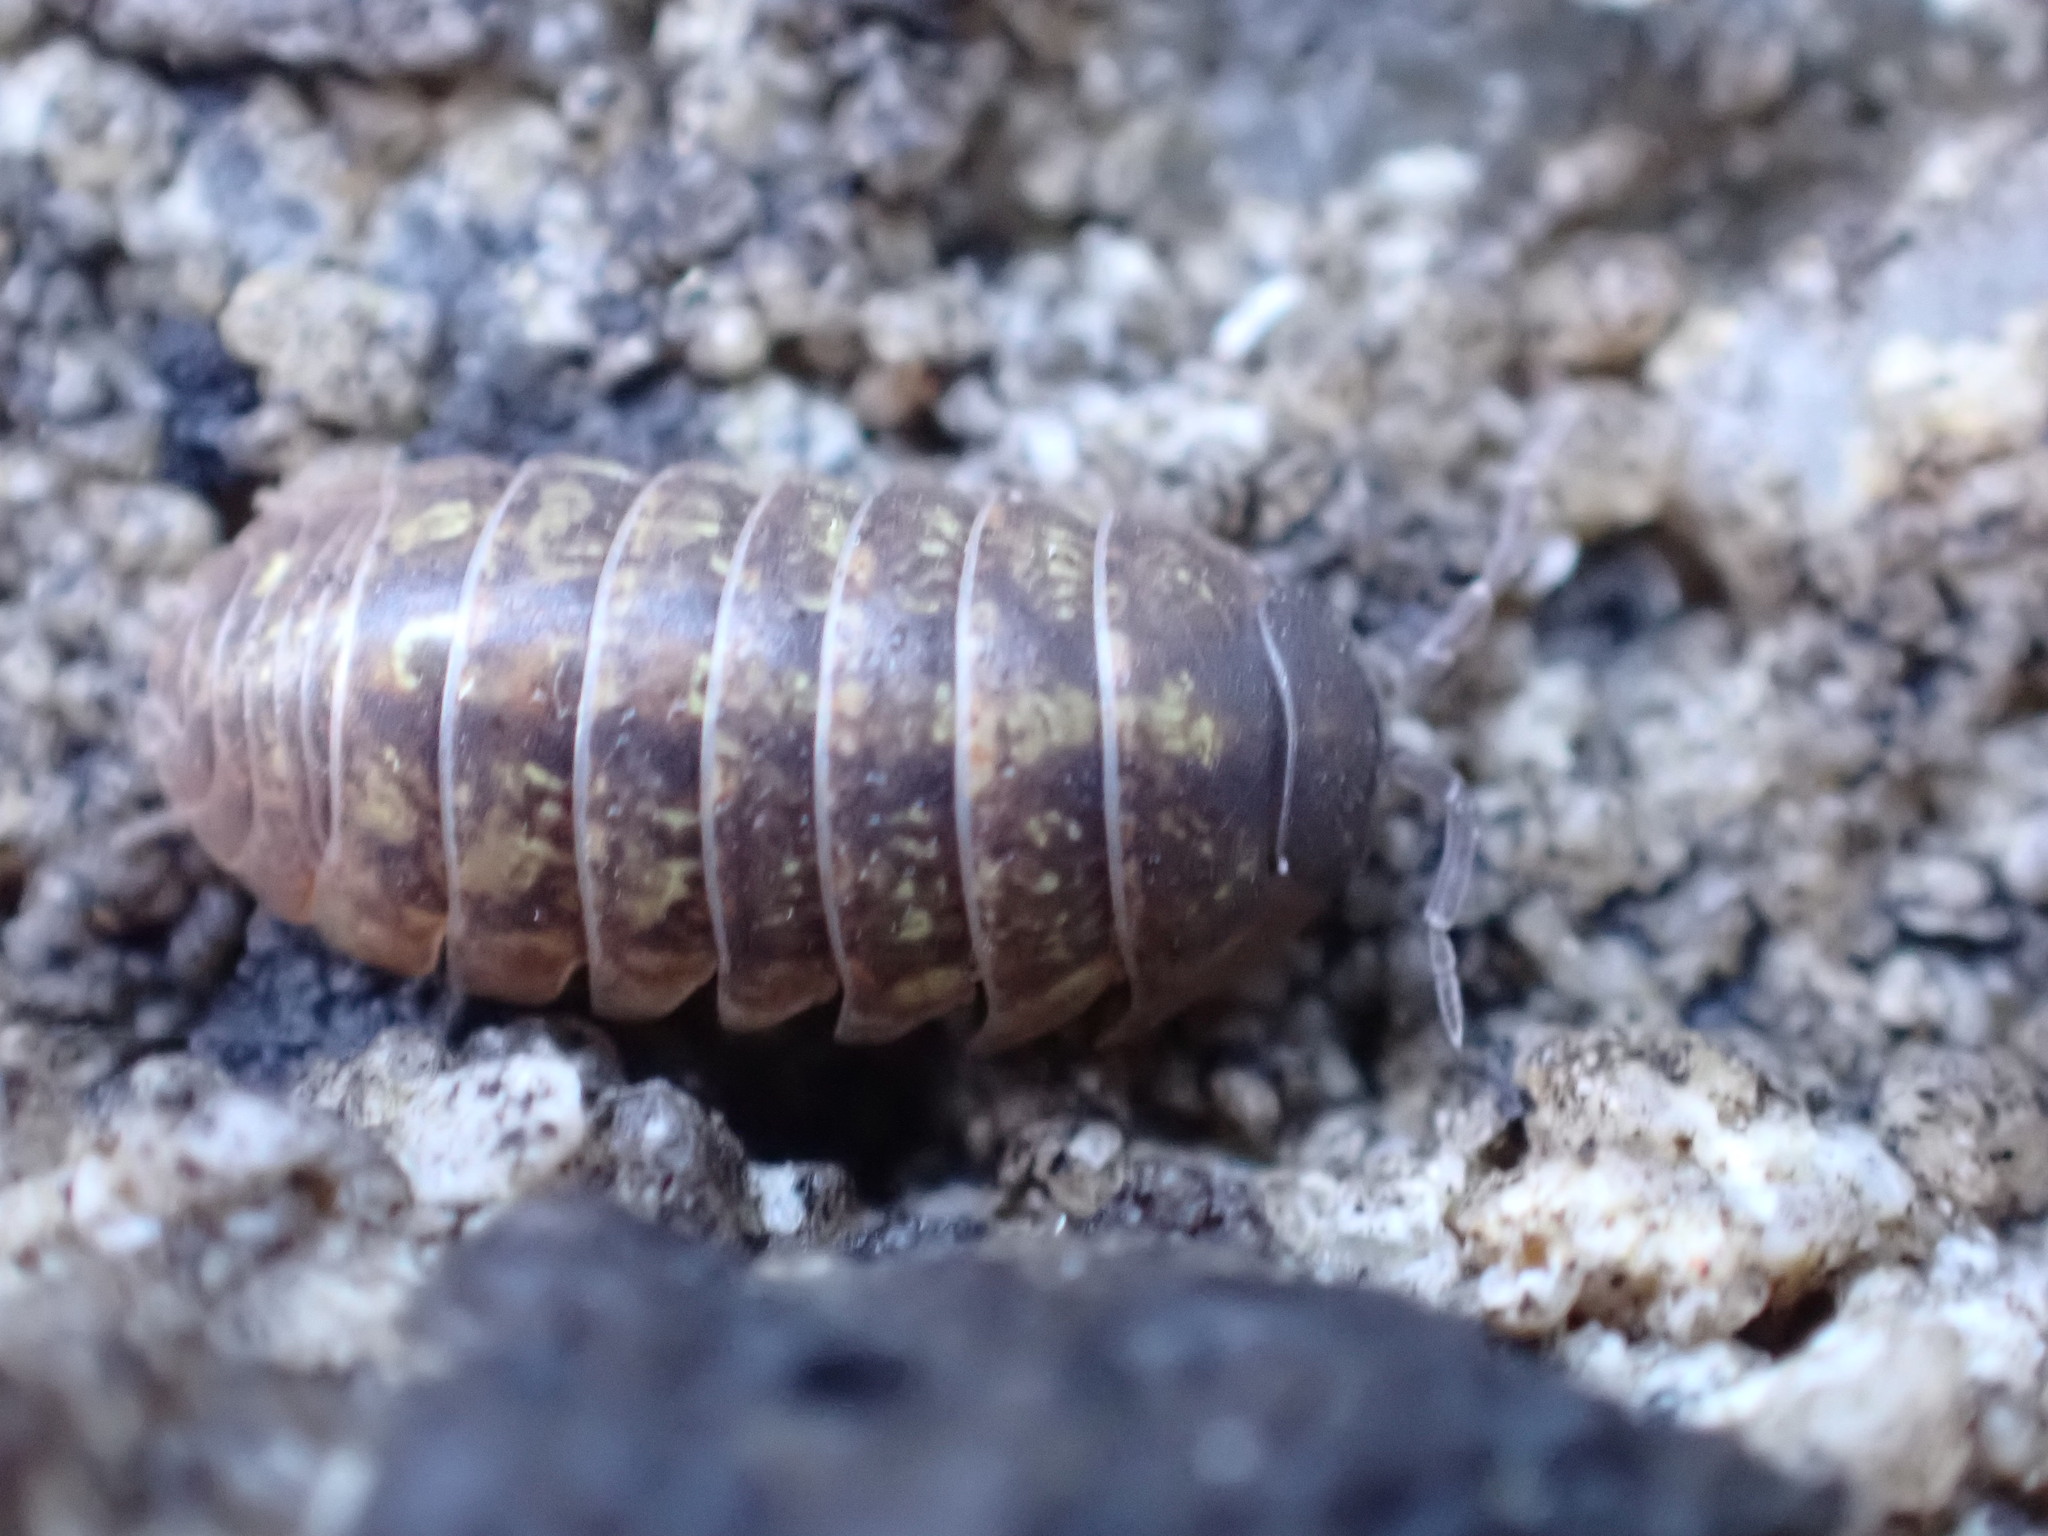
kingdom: Animalia
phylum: Arthropoda
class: Malacostraca
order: Isopoda
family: Armadillidiidae
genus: Armadillidium
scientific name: Armadillidium vulgare
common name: Common pill woodlouse
